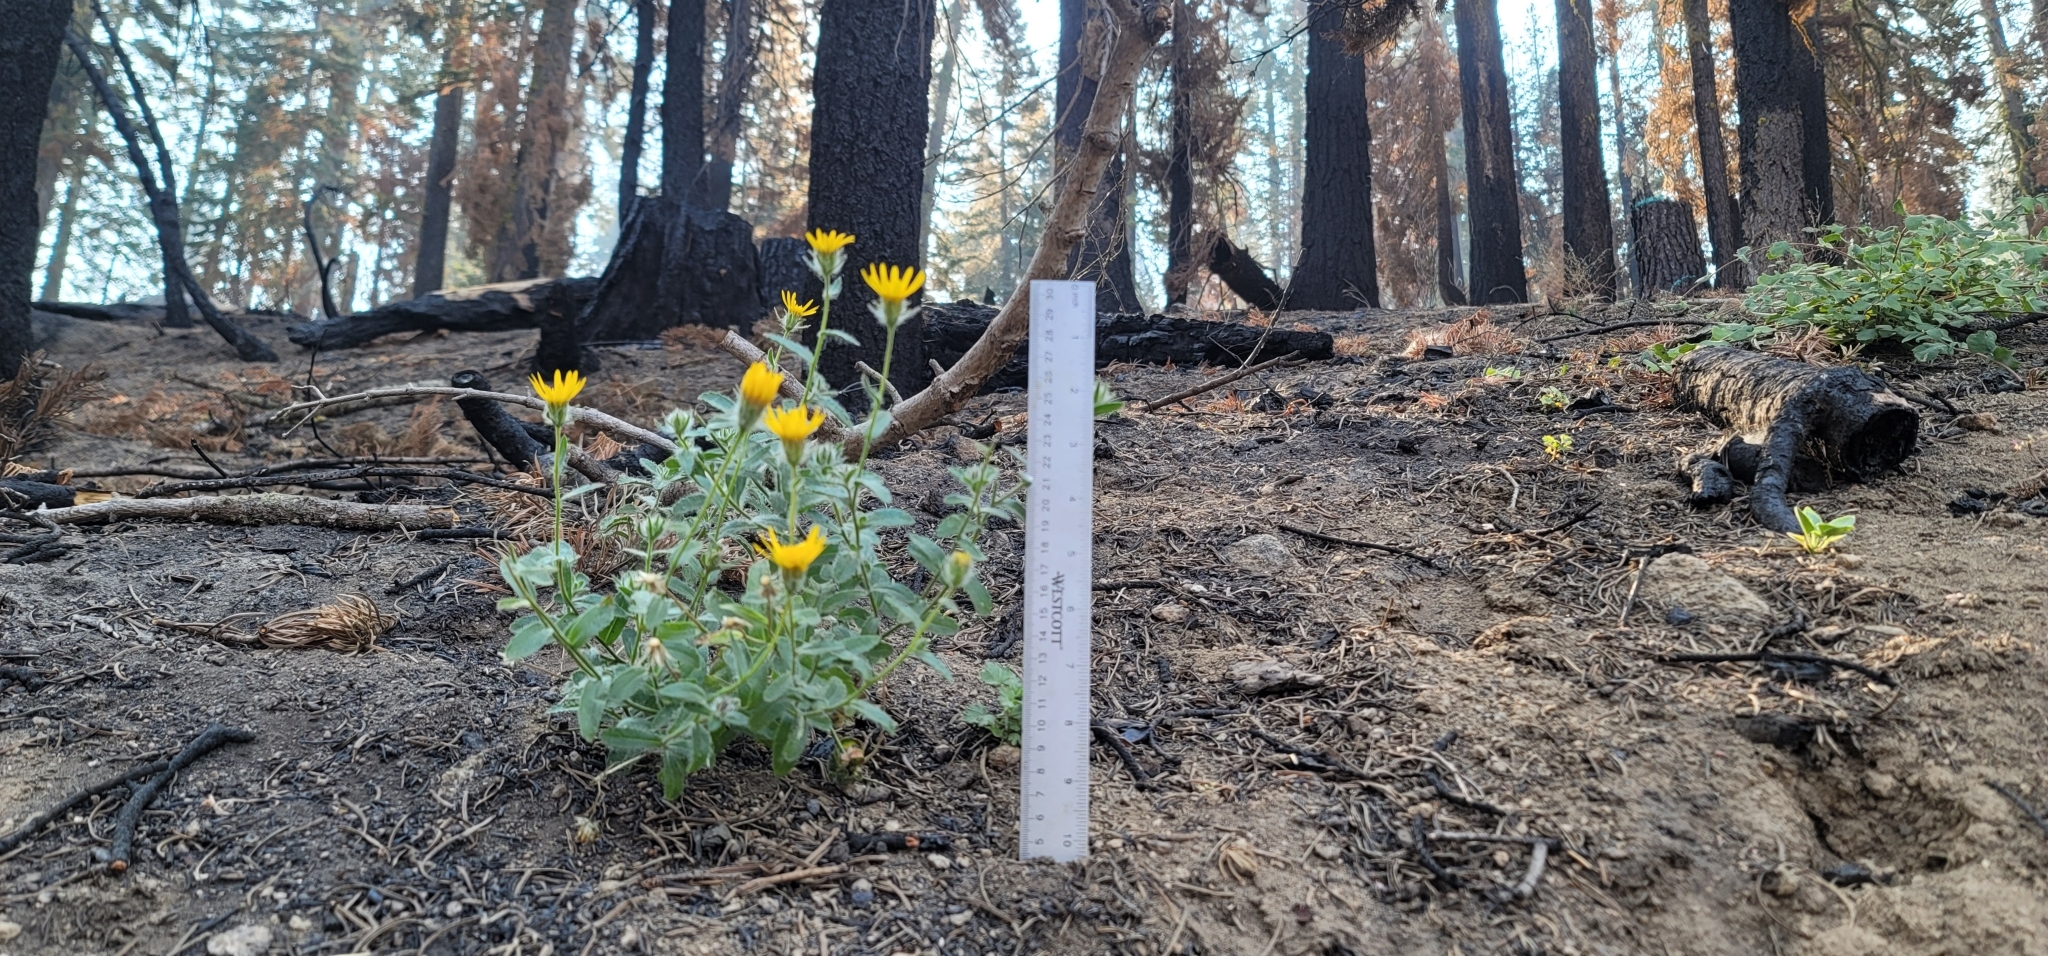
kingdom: Plantae
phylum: Tracheophyta
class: Magnoliopsida
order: Asterales
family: Asteraceae
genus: Hulsea
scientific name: Hulsea brevifolia
